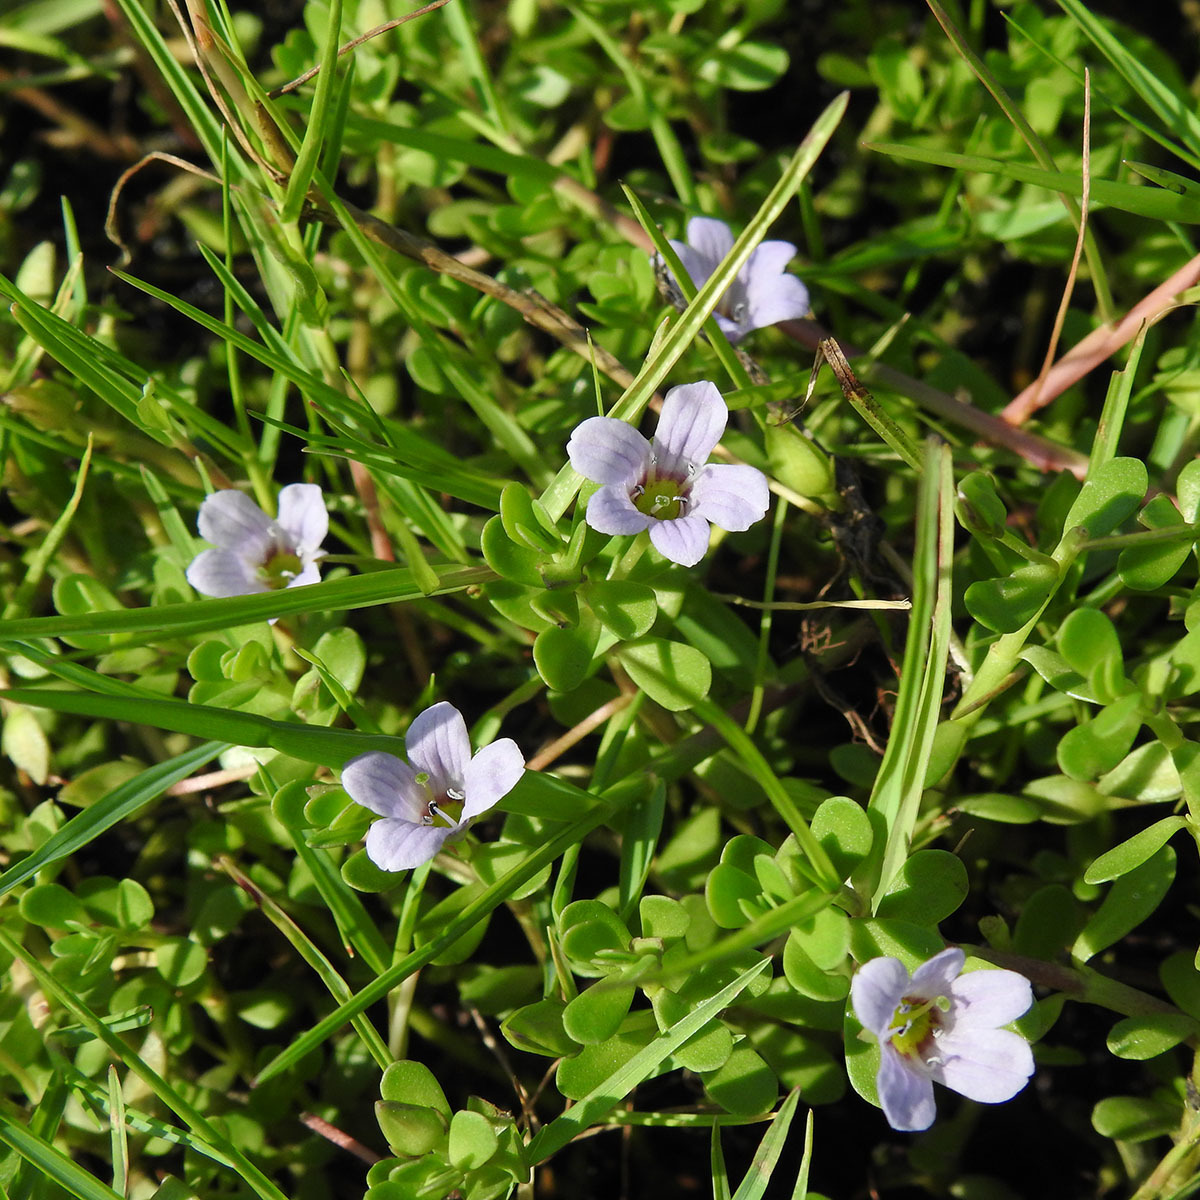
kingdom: Plantae
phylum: Tracheophyta
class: Magnoliopsida
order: Lamiales
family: Plantaginaceae
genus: Bacopa
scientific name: Bacopa monnieri
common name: Indian-pennywort
